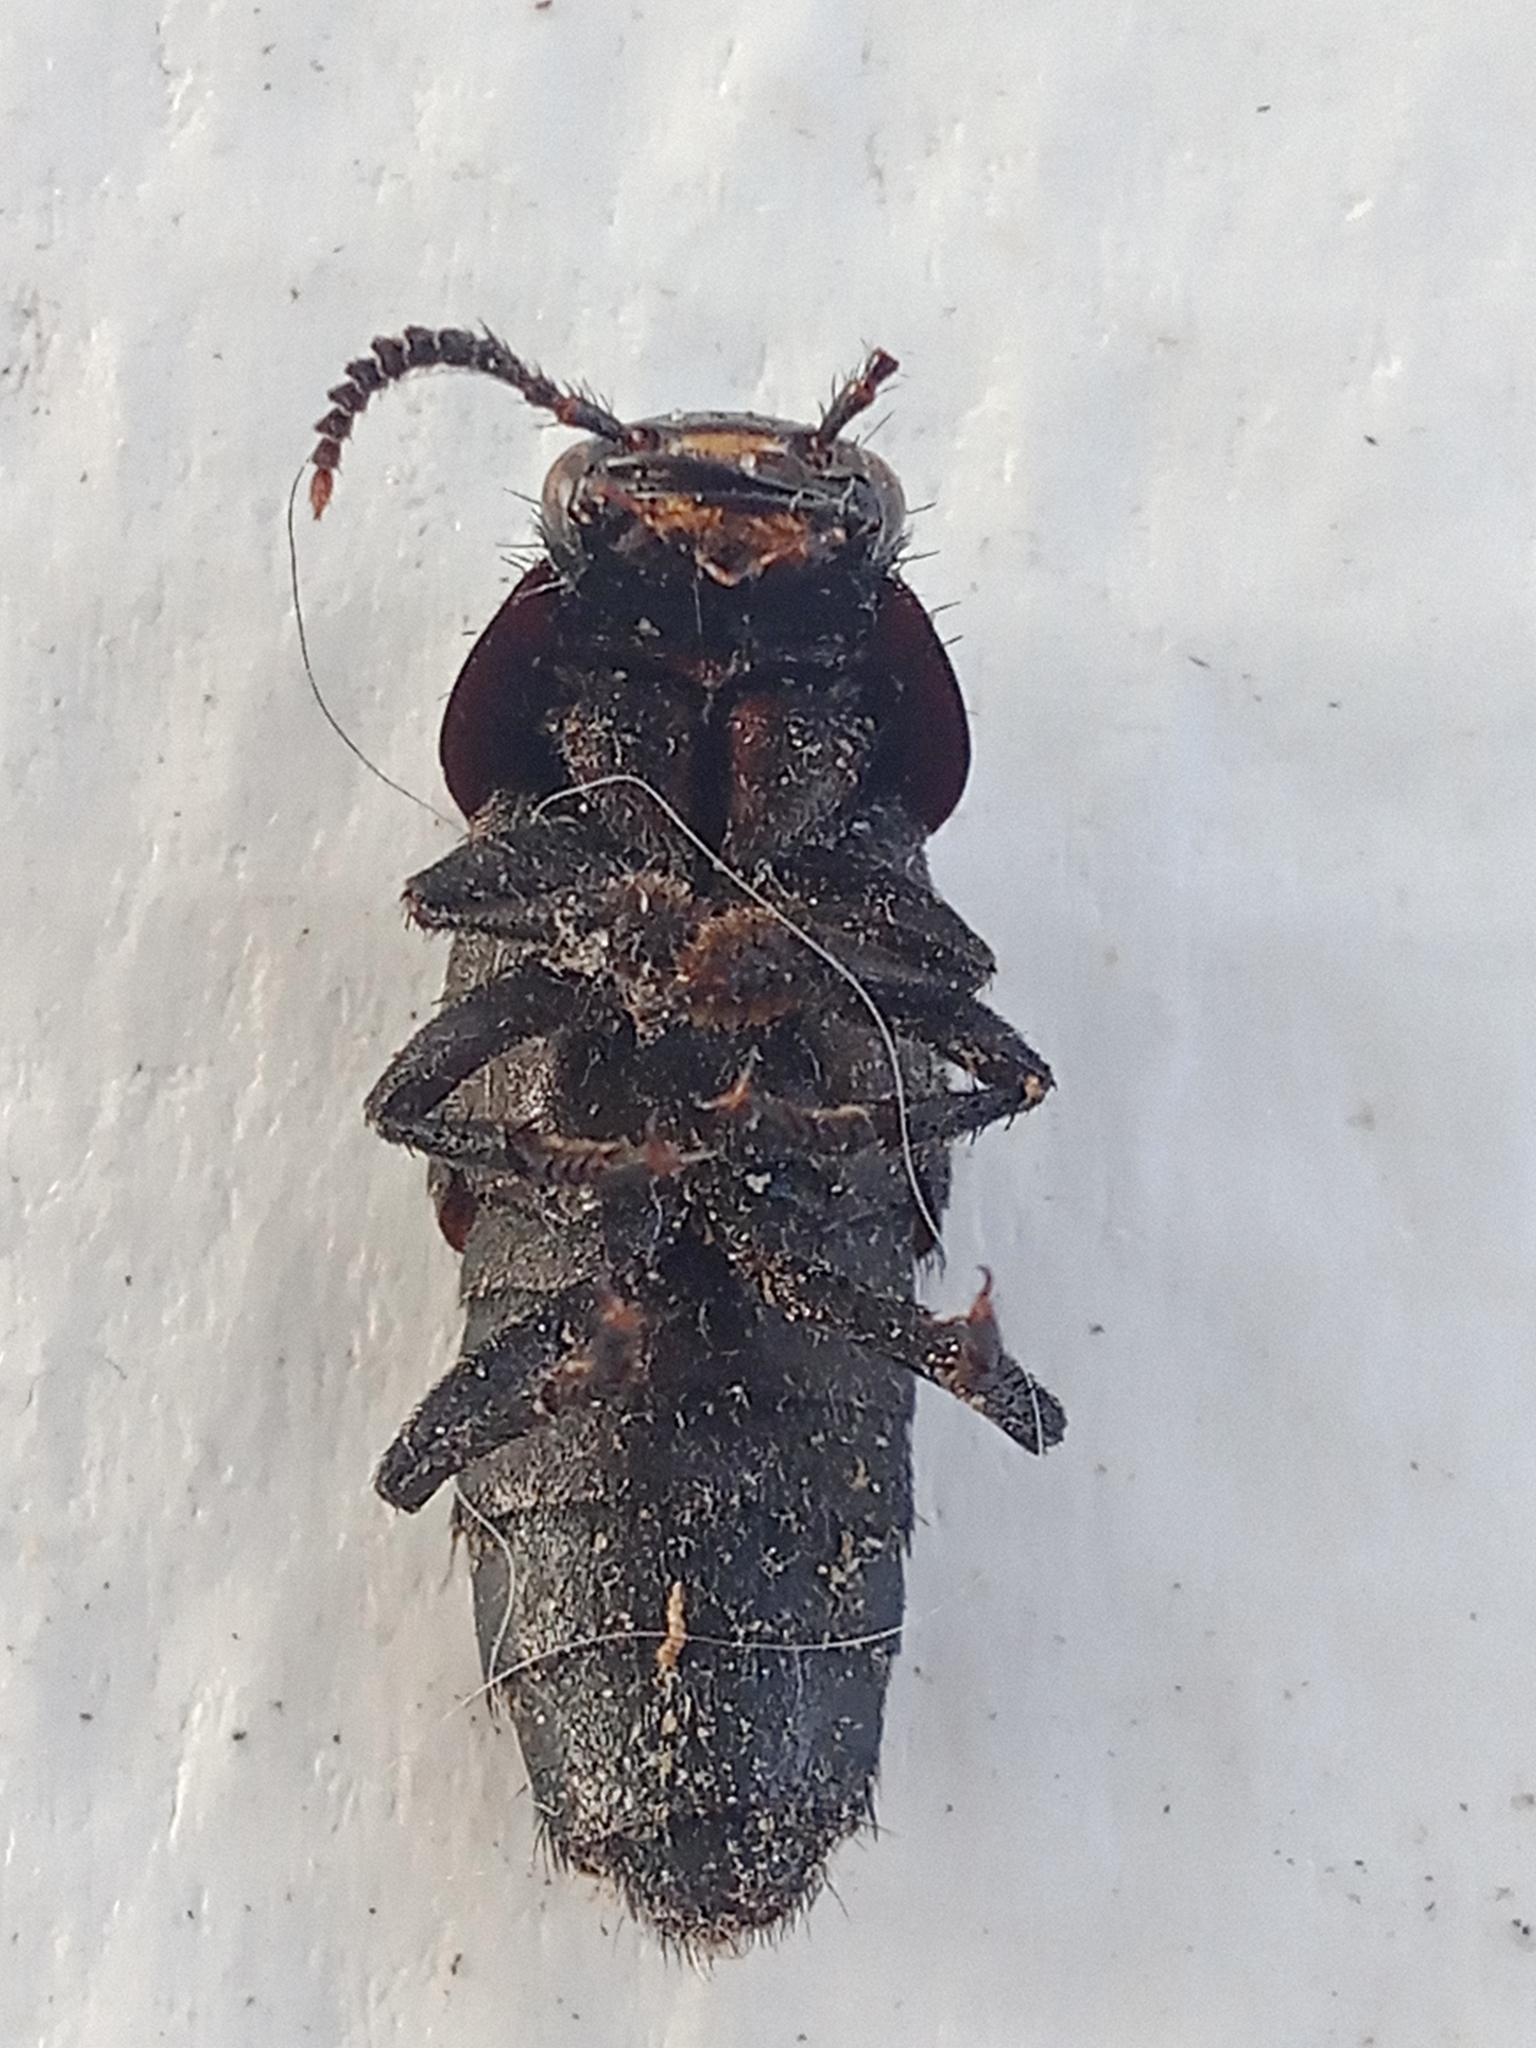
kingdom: Animalia
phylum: Arthropoda
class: Insecta
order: Coleoptera
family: Staphylinidae
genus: Quedius
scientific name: Quedius dilatatus
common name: Hornet rove-beetle
